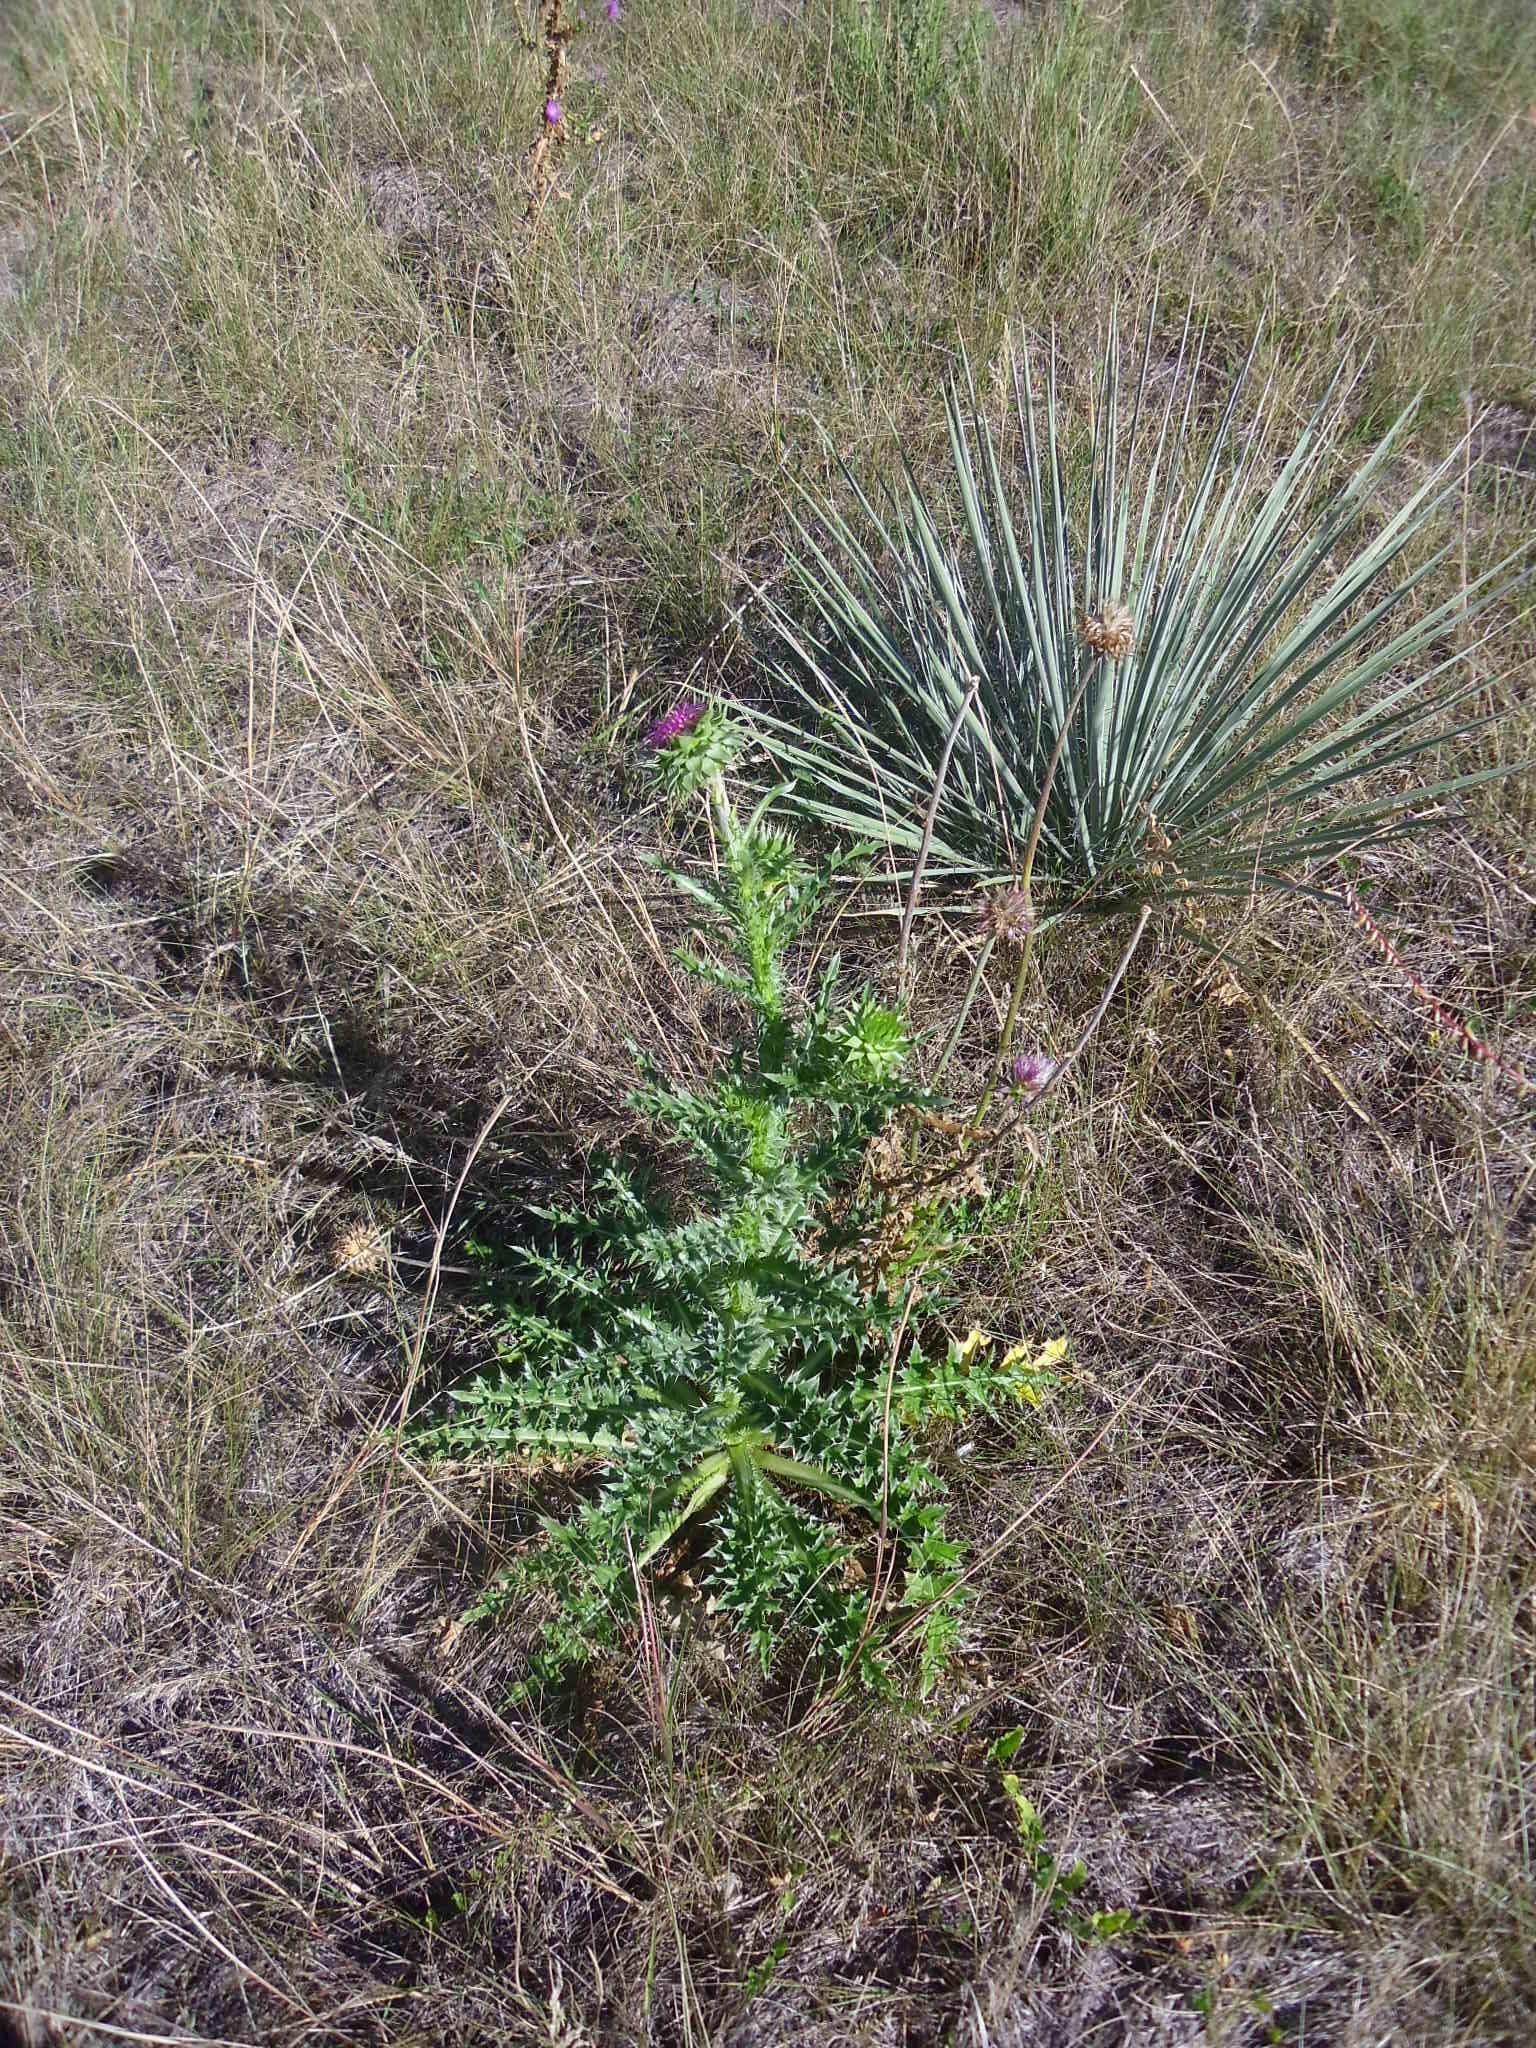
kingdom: Plantae
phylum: Tracheophyta
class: Magnoliopsida
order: Asterales
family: Asteraceae
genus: Carduus
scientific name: Carduus nutans
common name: Musk thistle
